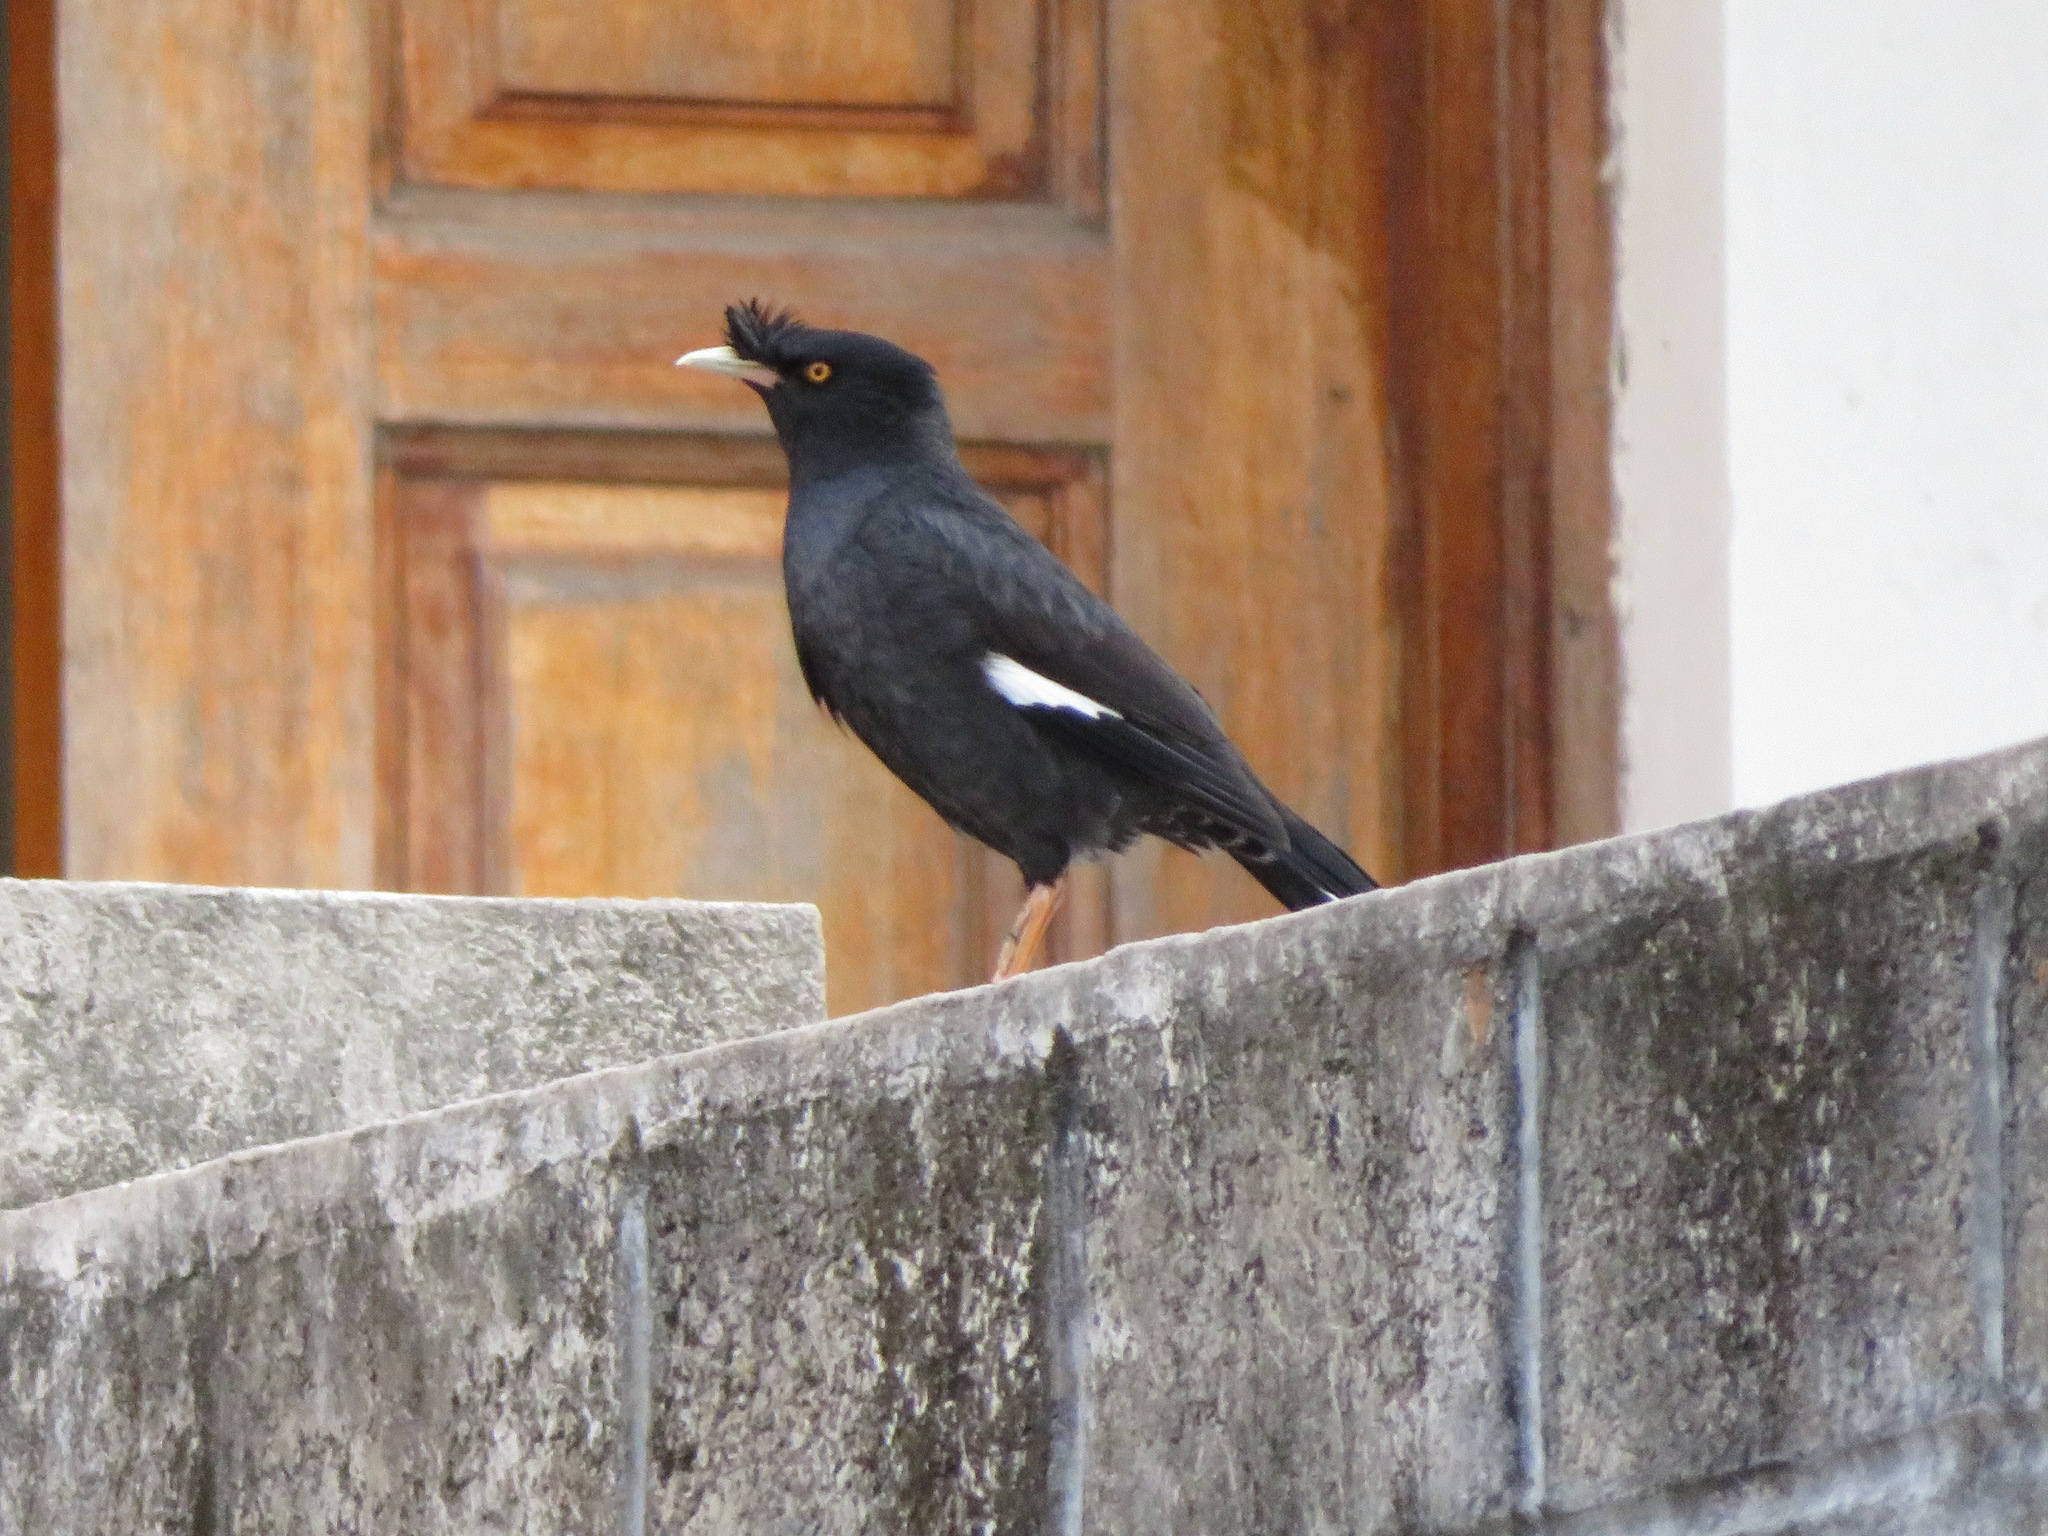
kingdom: Animalia
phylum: Chordata
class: Aves
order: Passeriformes
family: Sturnidae
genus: Acridotheres
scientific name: Acridotheres cristatellus
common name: Crested myna
